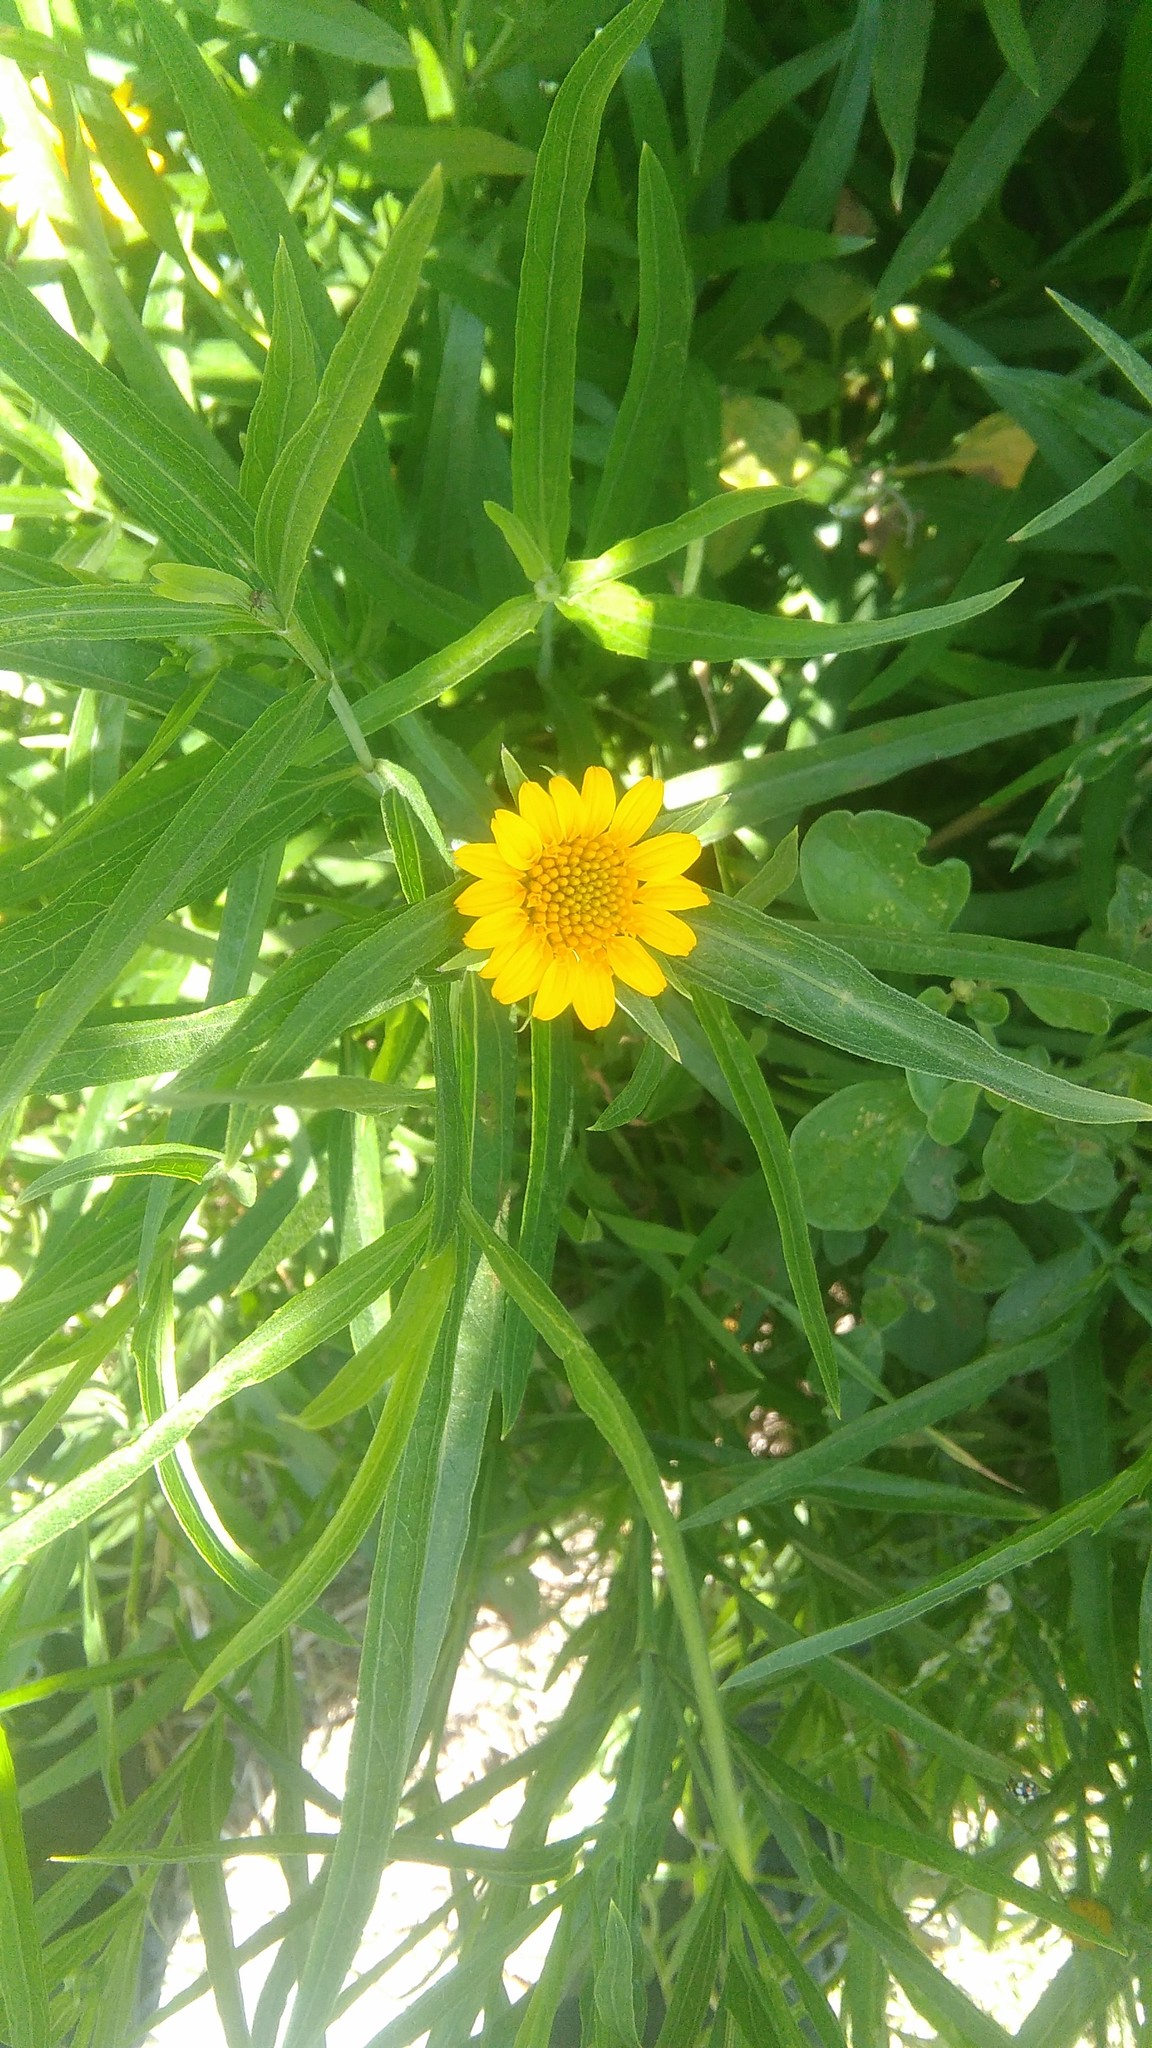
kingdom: Plantae
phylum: Tracheophyta
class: Magnoliopsida
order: Asterales
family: Asteraceae
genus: Pascalia
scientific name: Pascalia glauca
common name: Beach creeping oxeye
